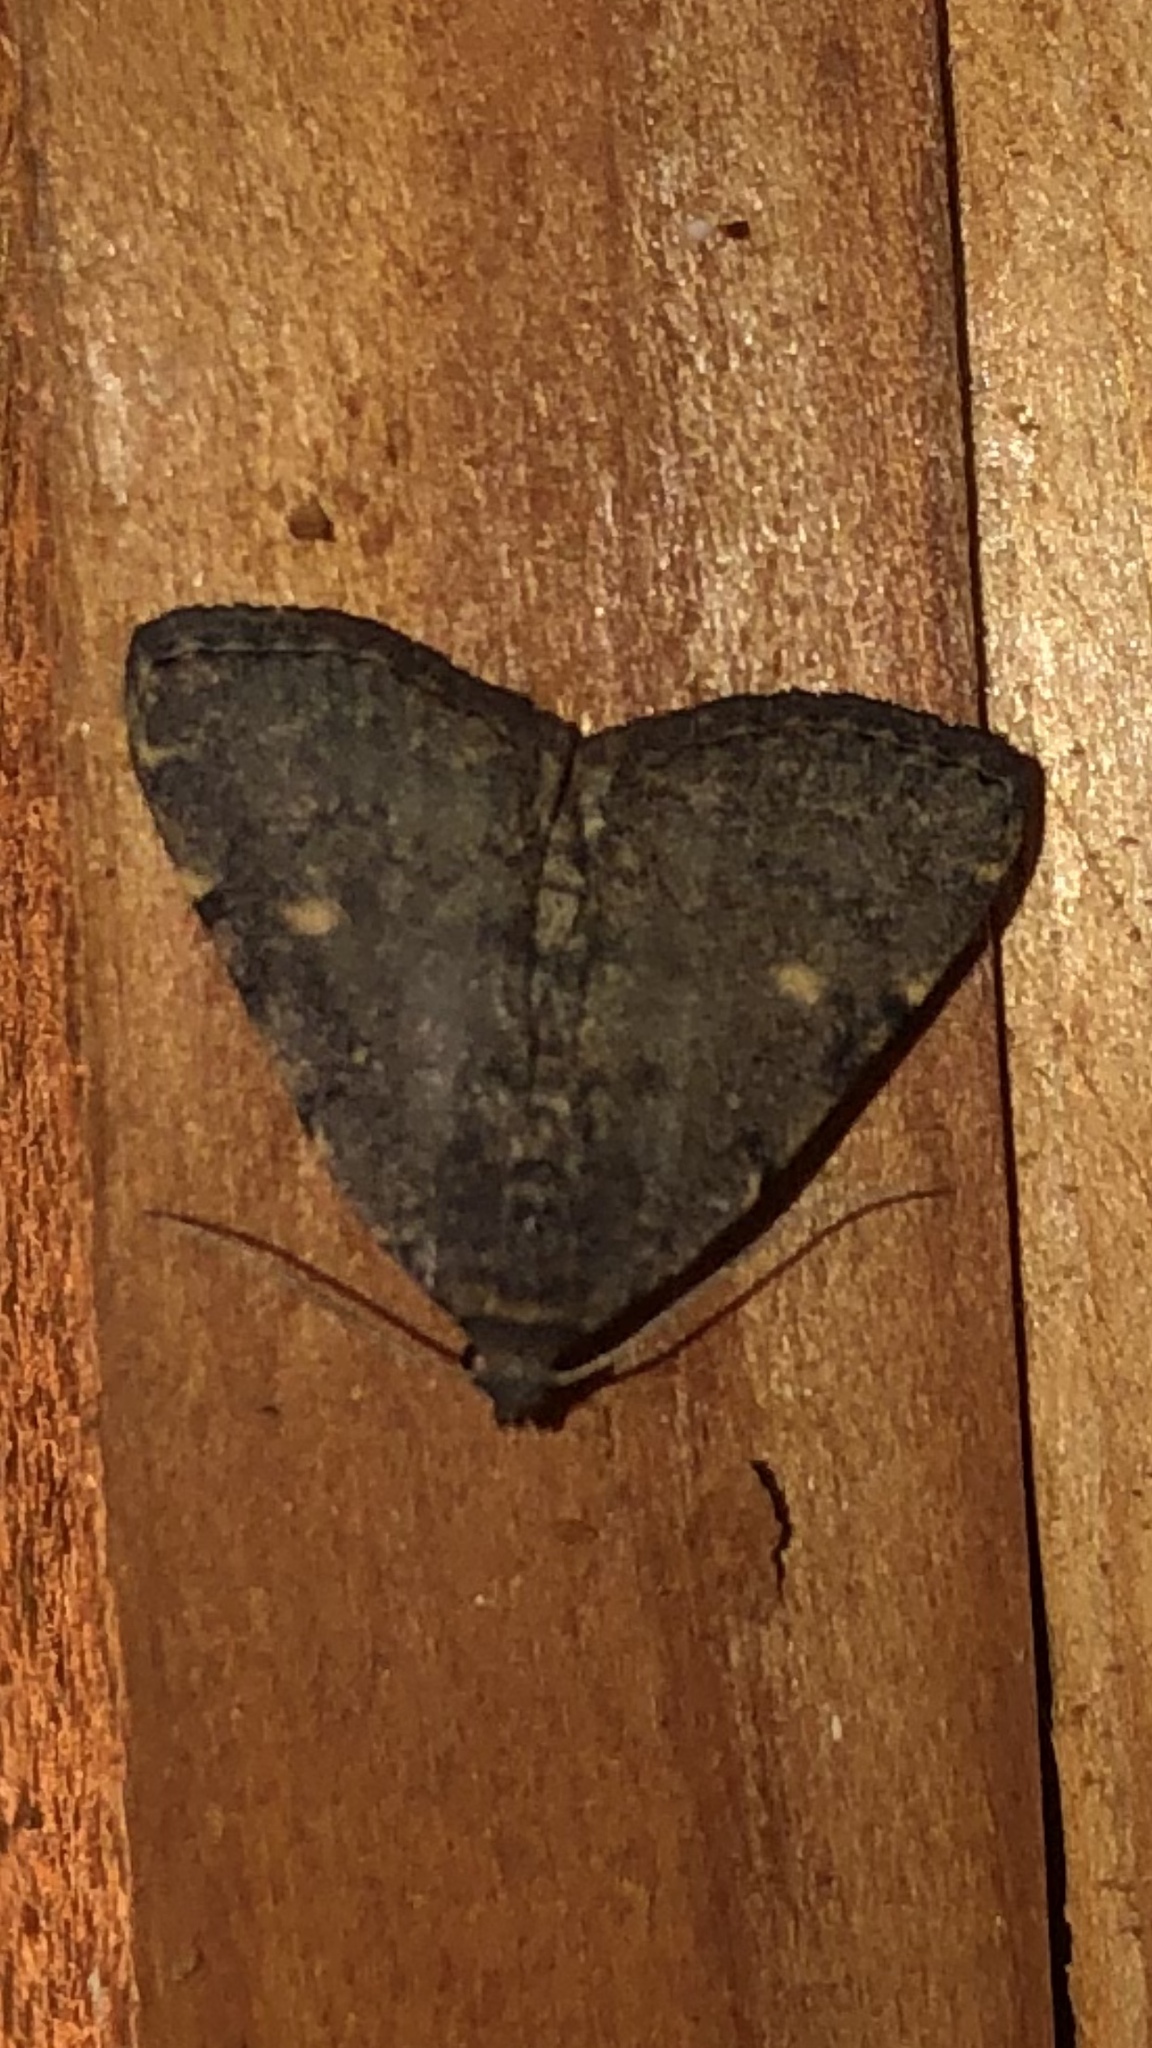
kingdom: Animalia
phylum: Arthropoda
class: Insecta
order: Lepidoptera
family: Erebidae
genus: Idia
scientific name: Idia aemula
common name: Common idia moth
